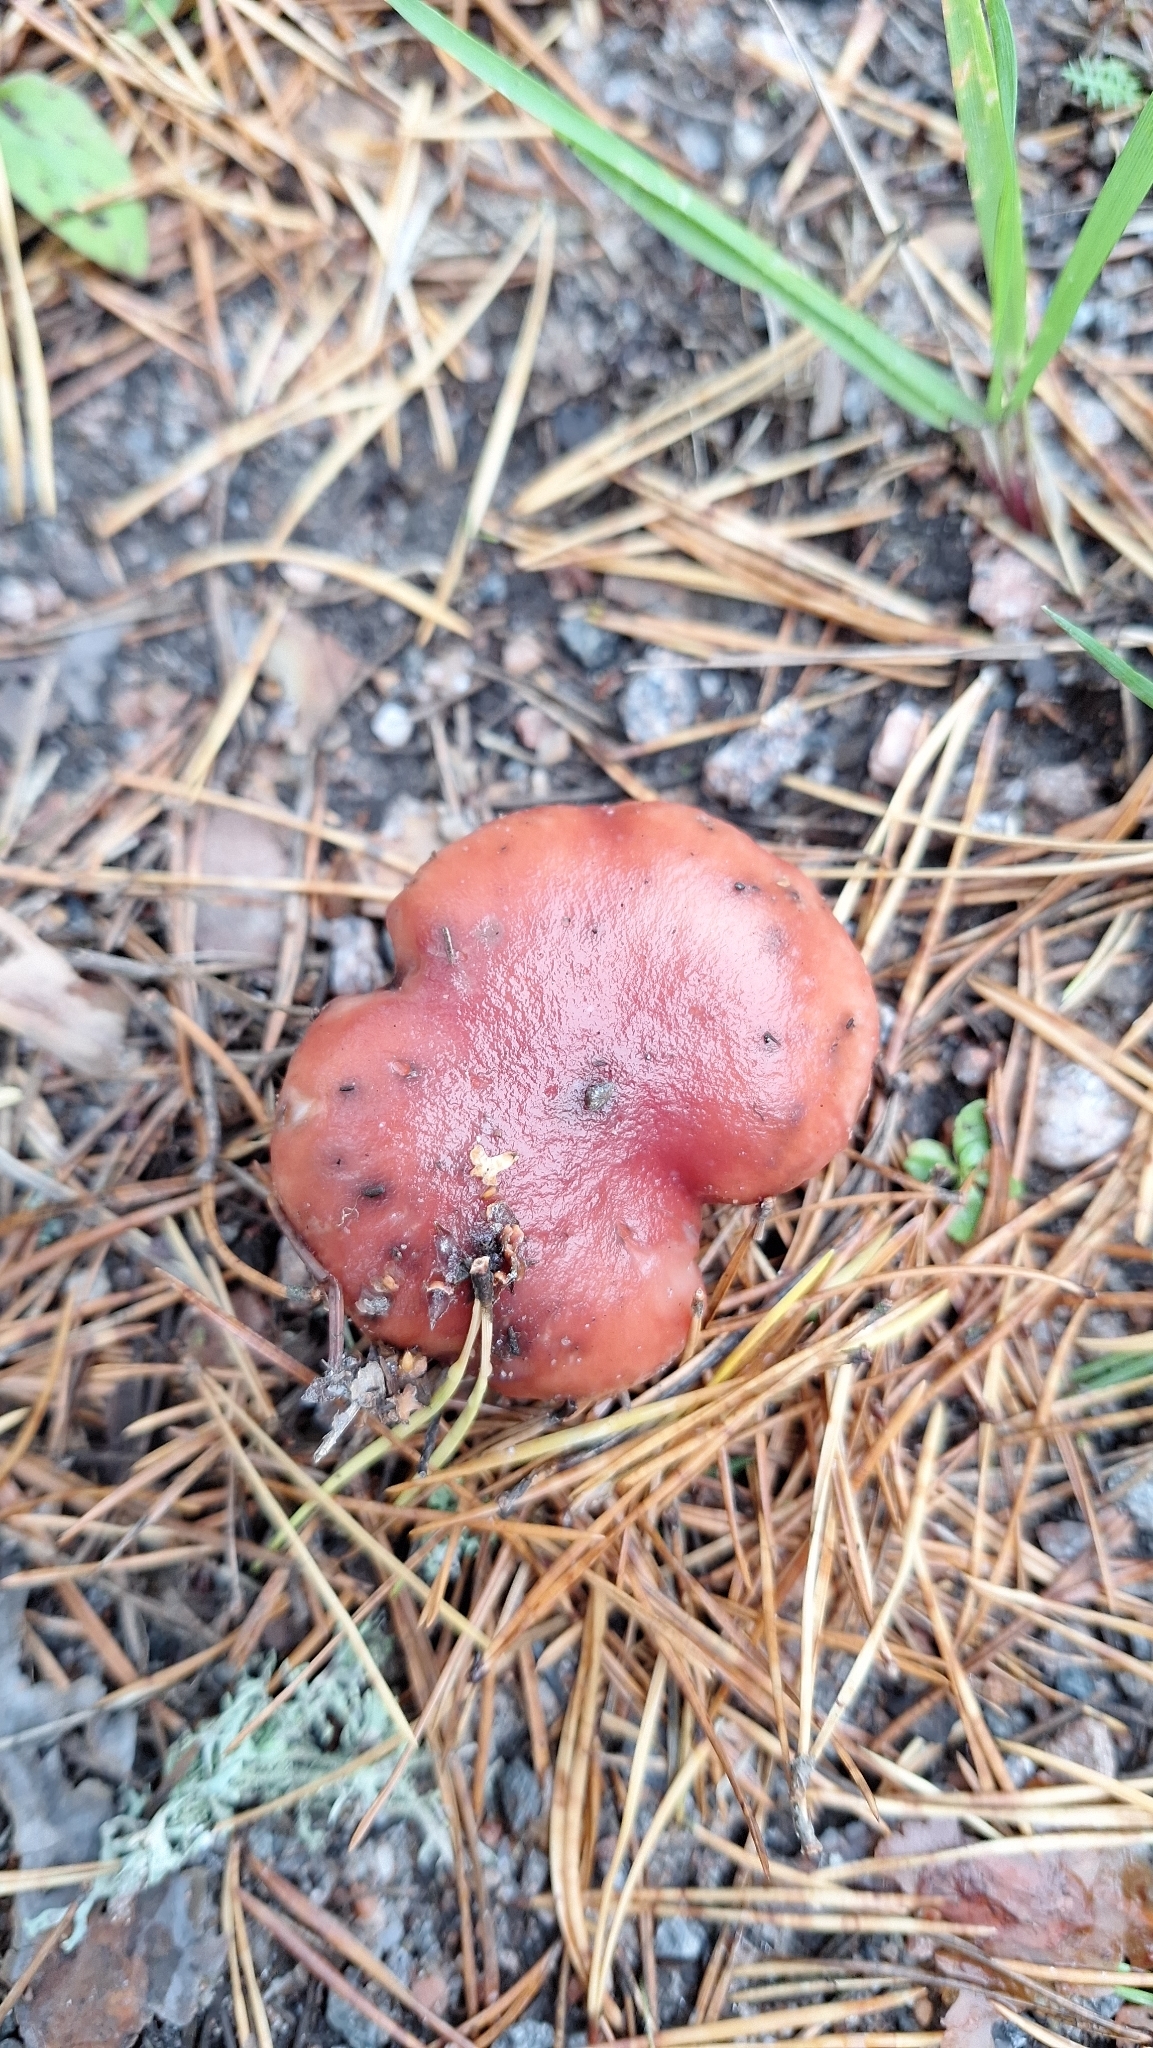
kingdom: Fungi
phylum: Basidiomycota
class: Agaricomycetes
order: Boletales
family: Gomphidiaceae
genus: Gomphidius
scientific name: Gomphidius roseus
